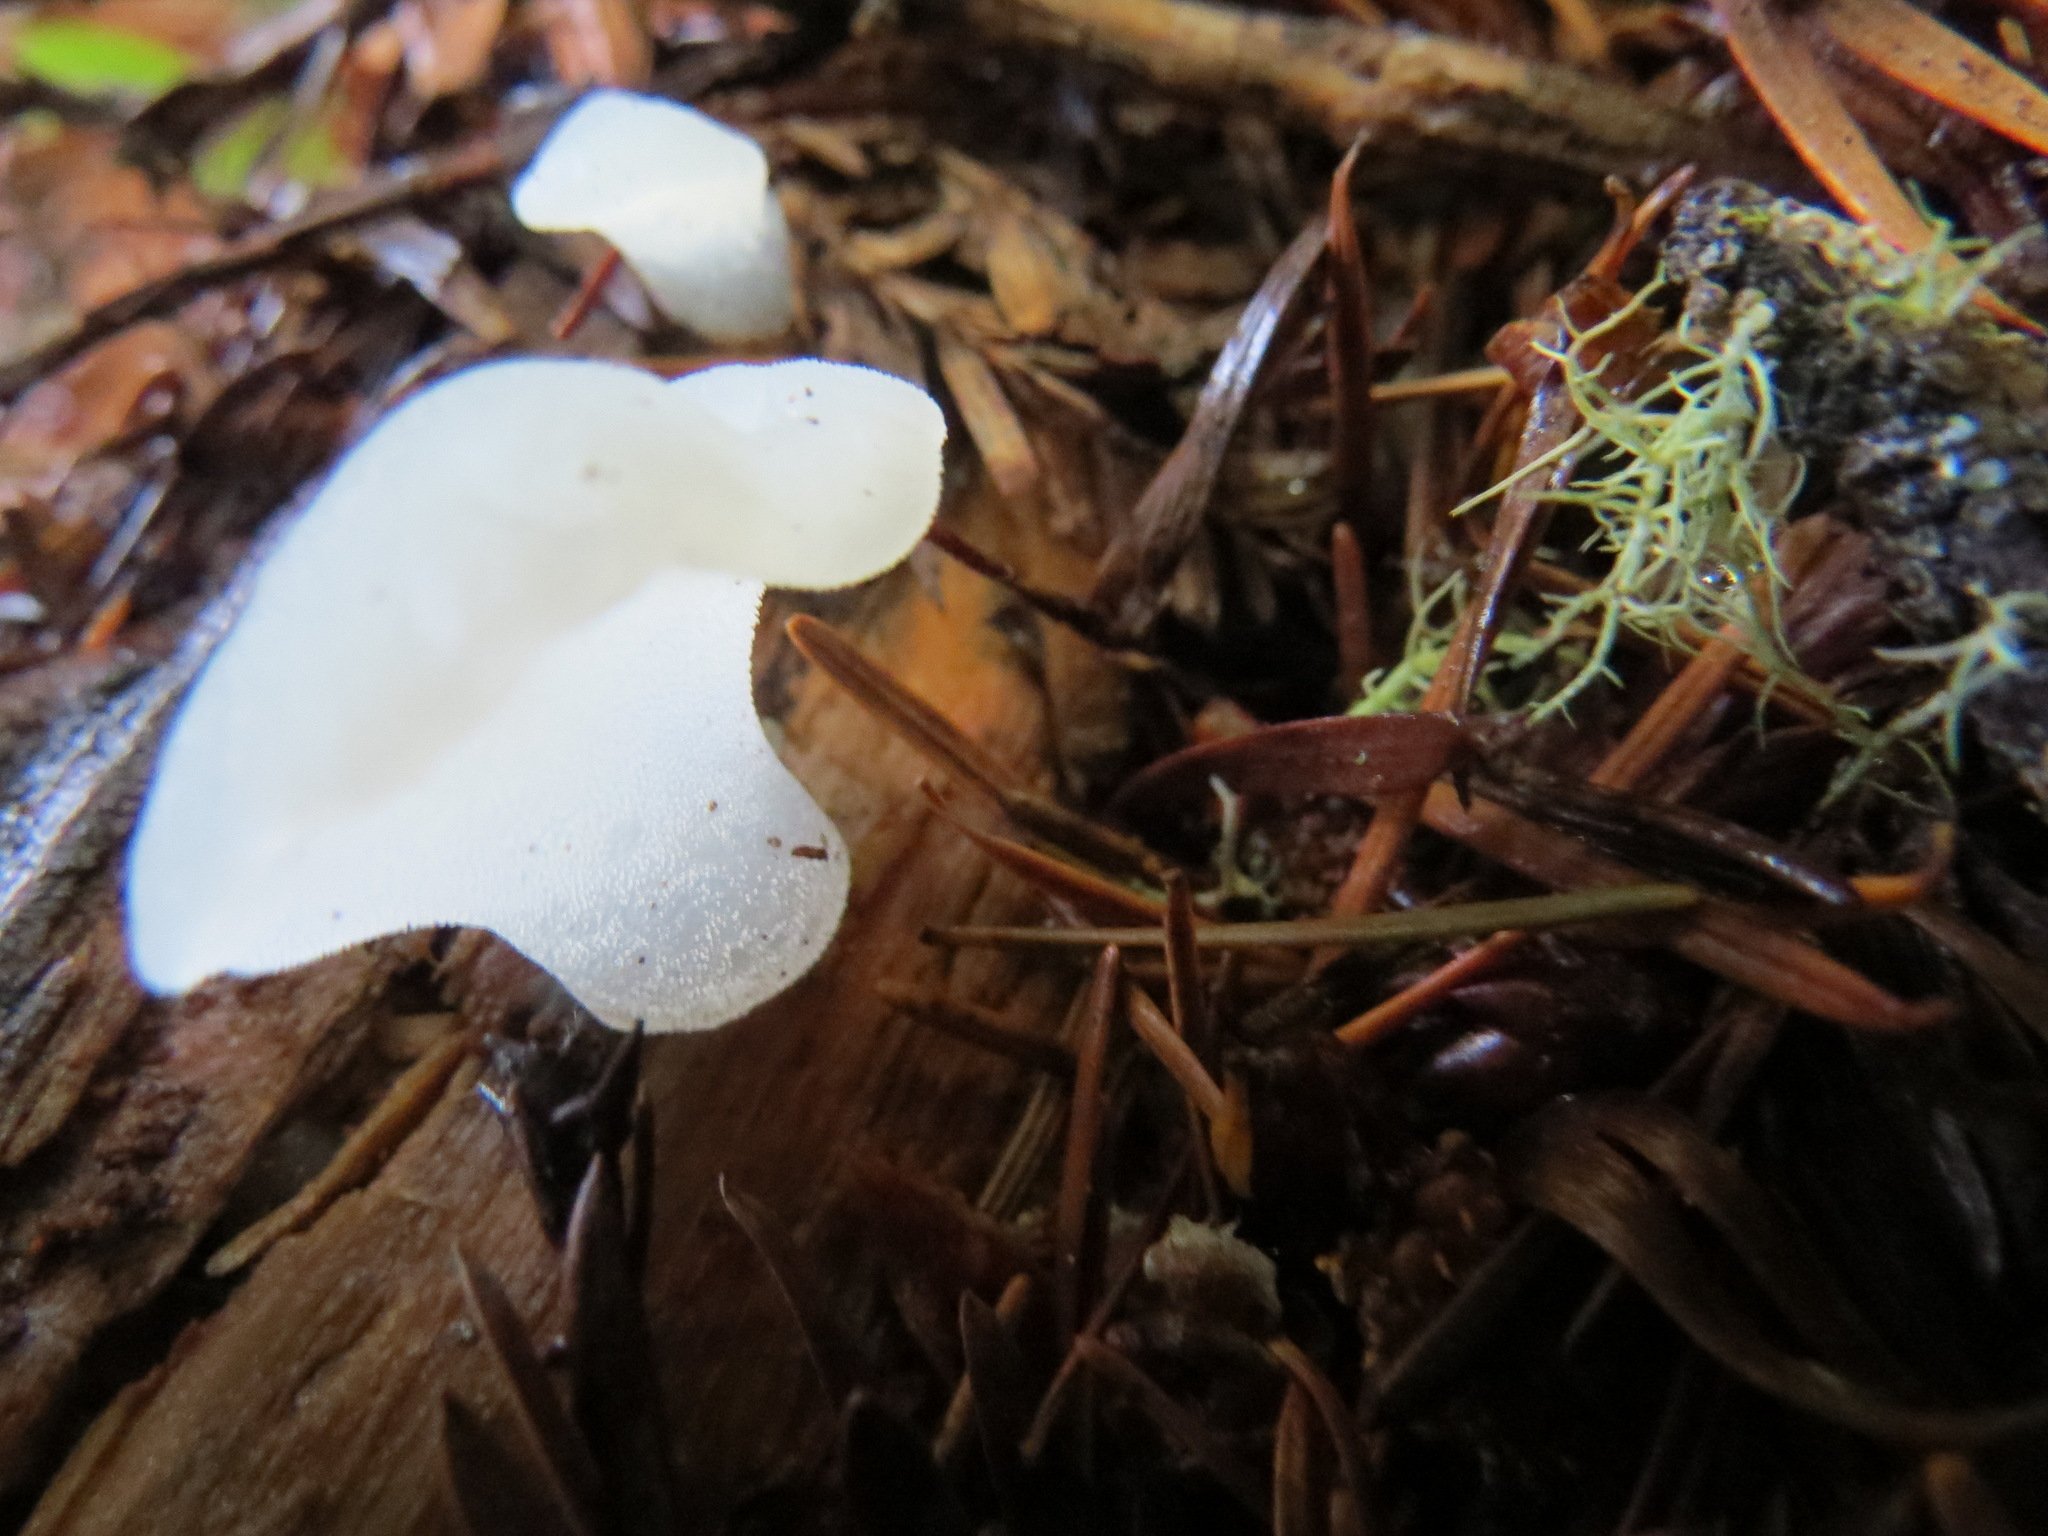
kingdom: Fungi
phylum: Basidiomycota
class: Agaricomycetes
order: Auriculariales
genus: Pseudohydnum
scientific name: Pseudohydnum gelatinosum
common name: Jelly tongue
